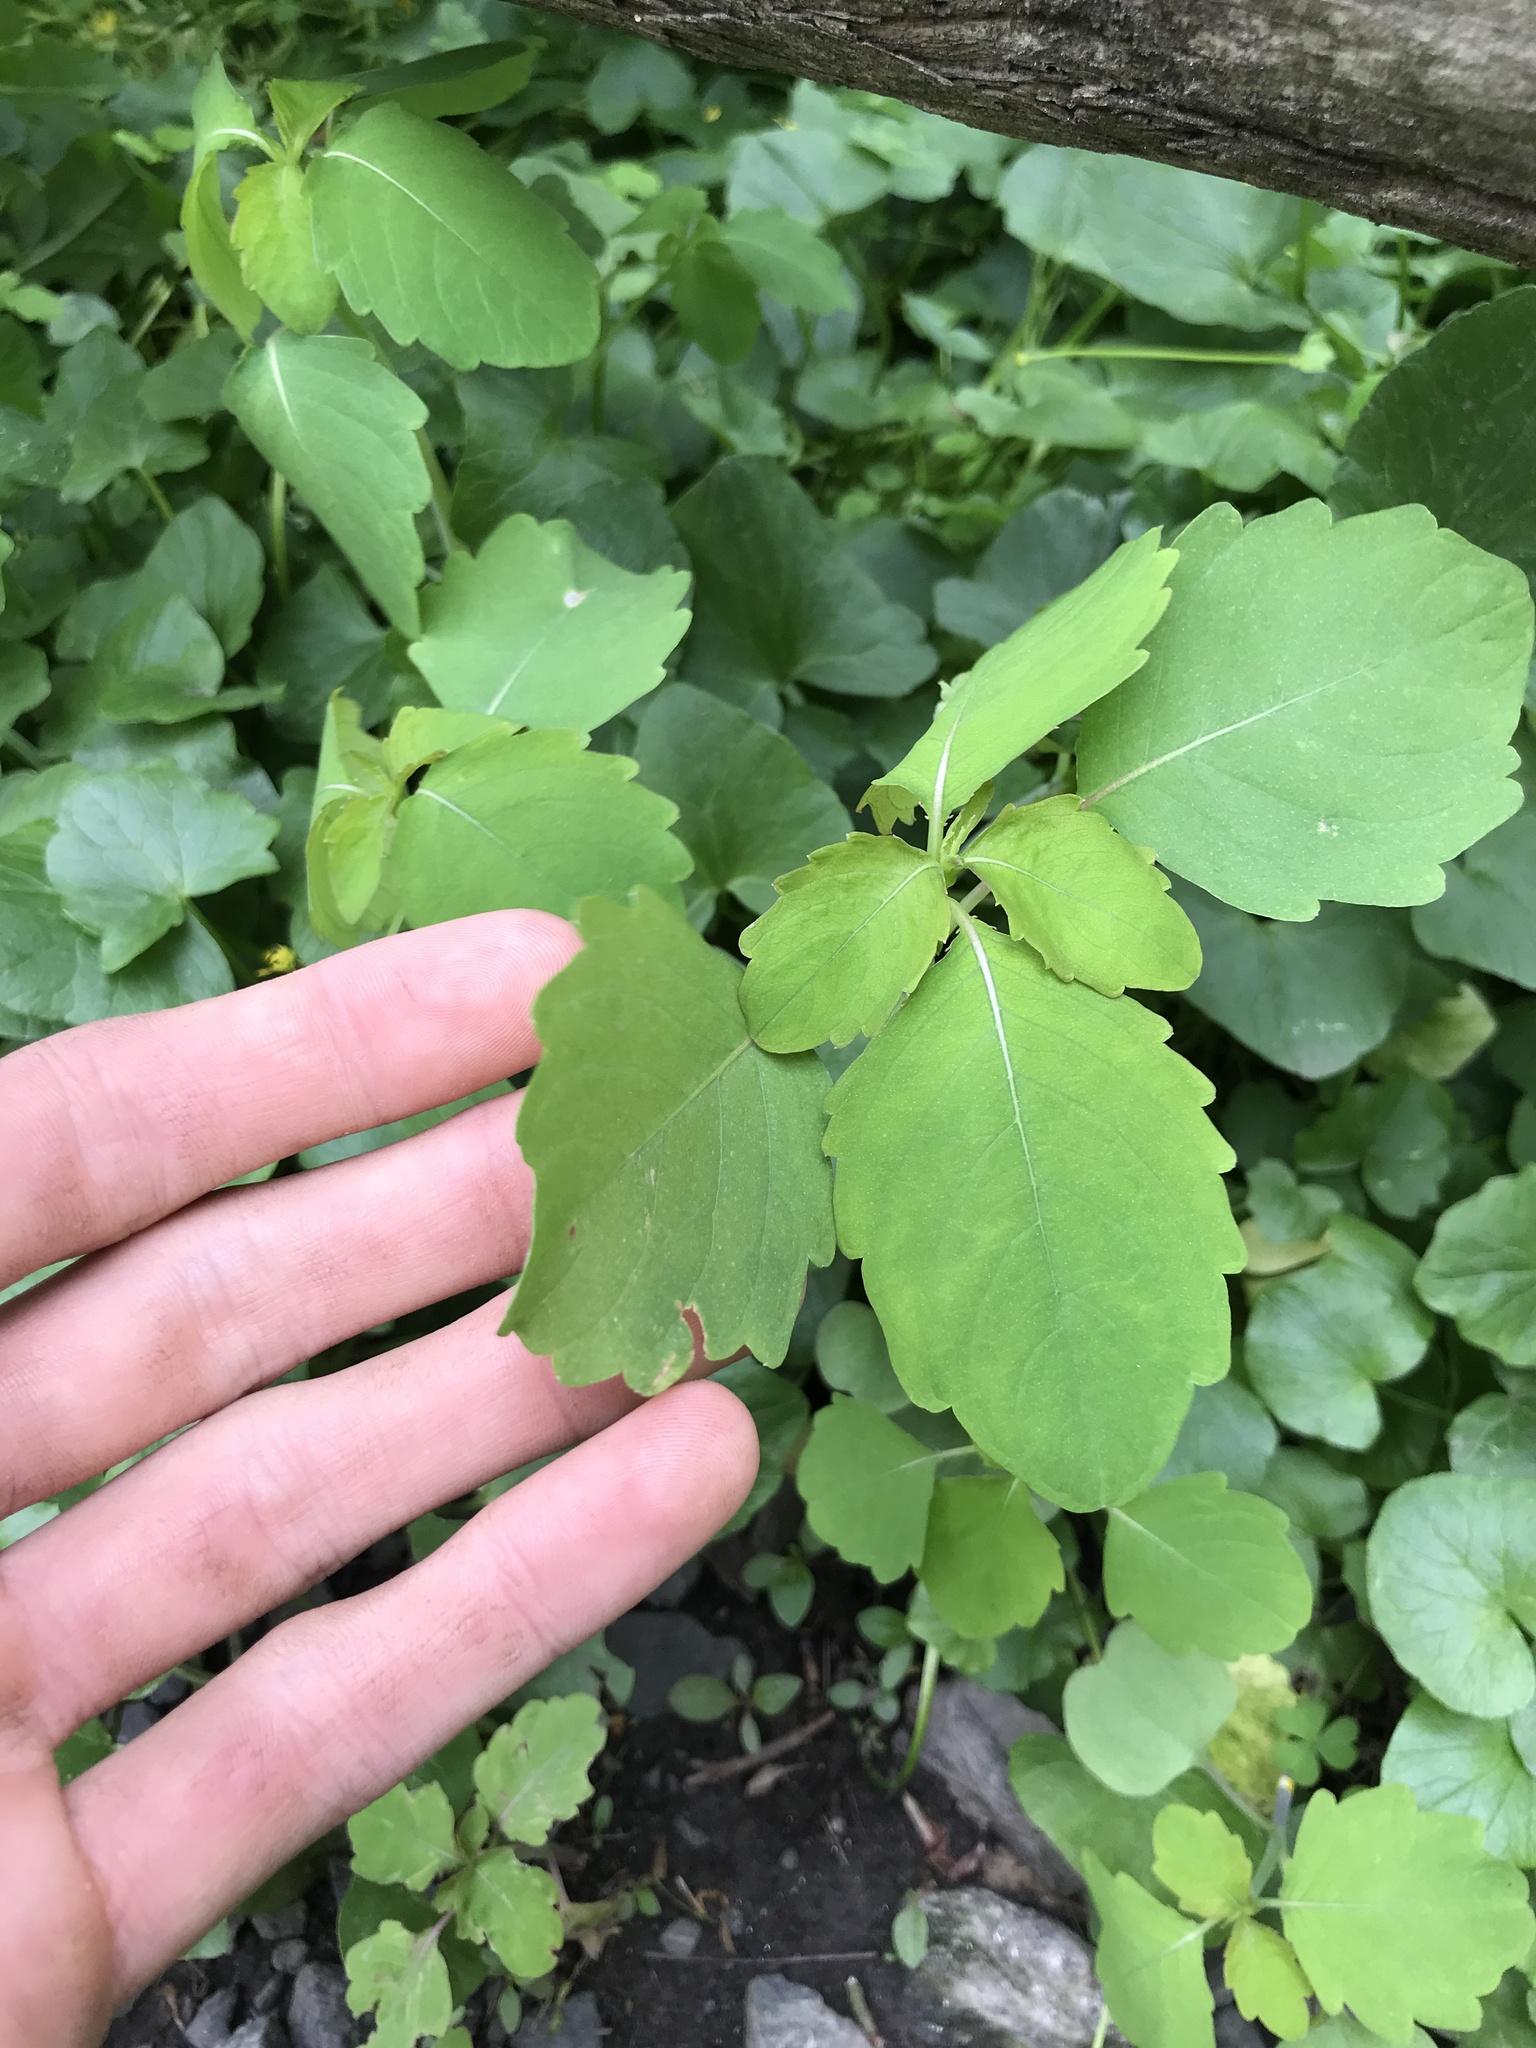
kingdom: Plantae
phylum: Tracheophyta
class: Magnoliopsida
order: Ericales
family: Balsaminaceae
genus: Impatiens
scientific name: Impatiens
